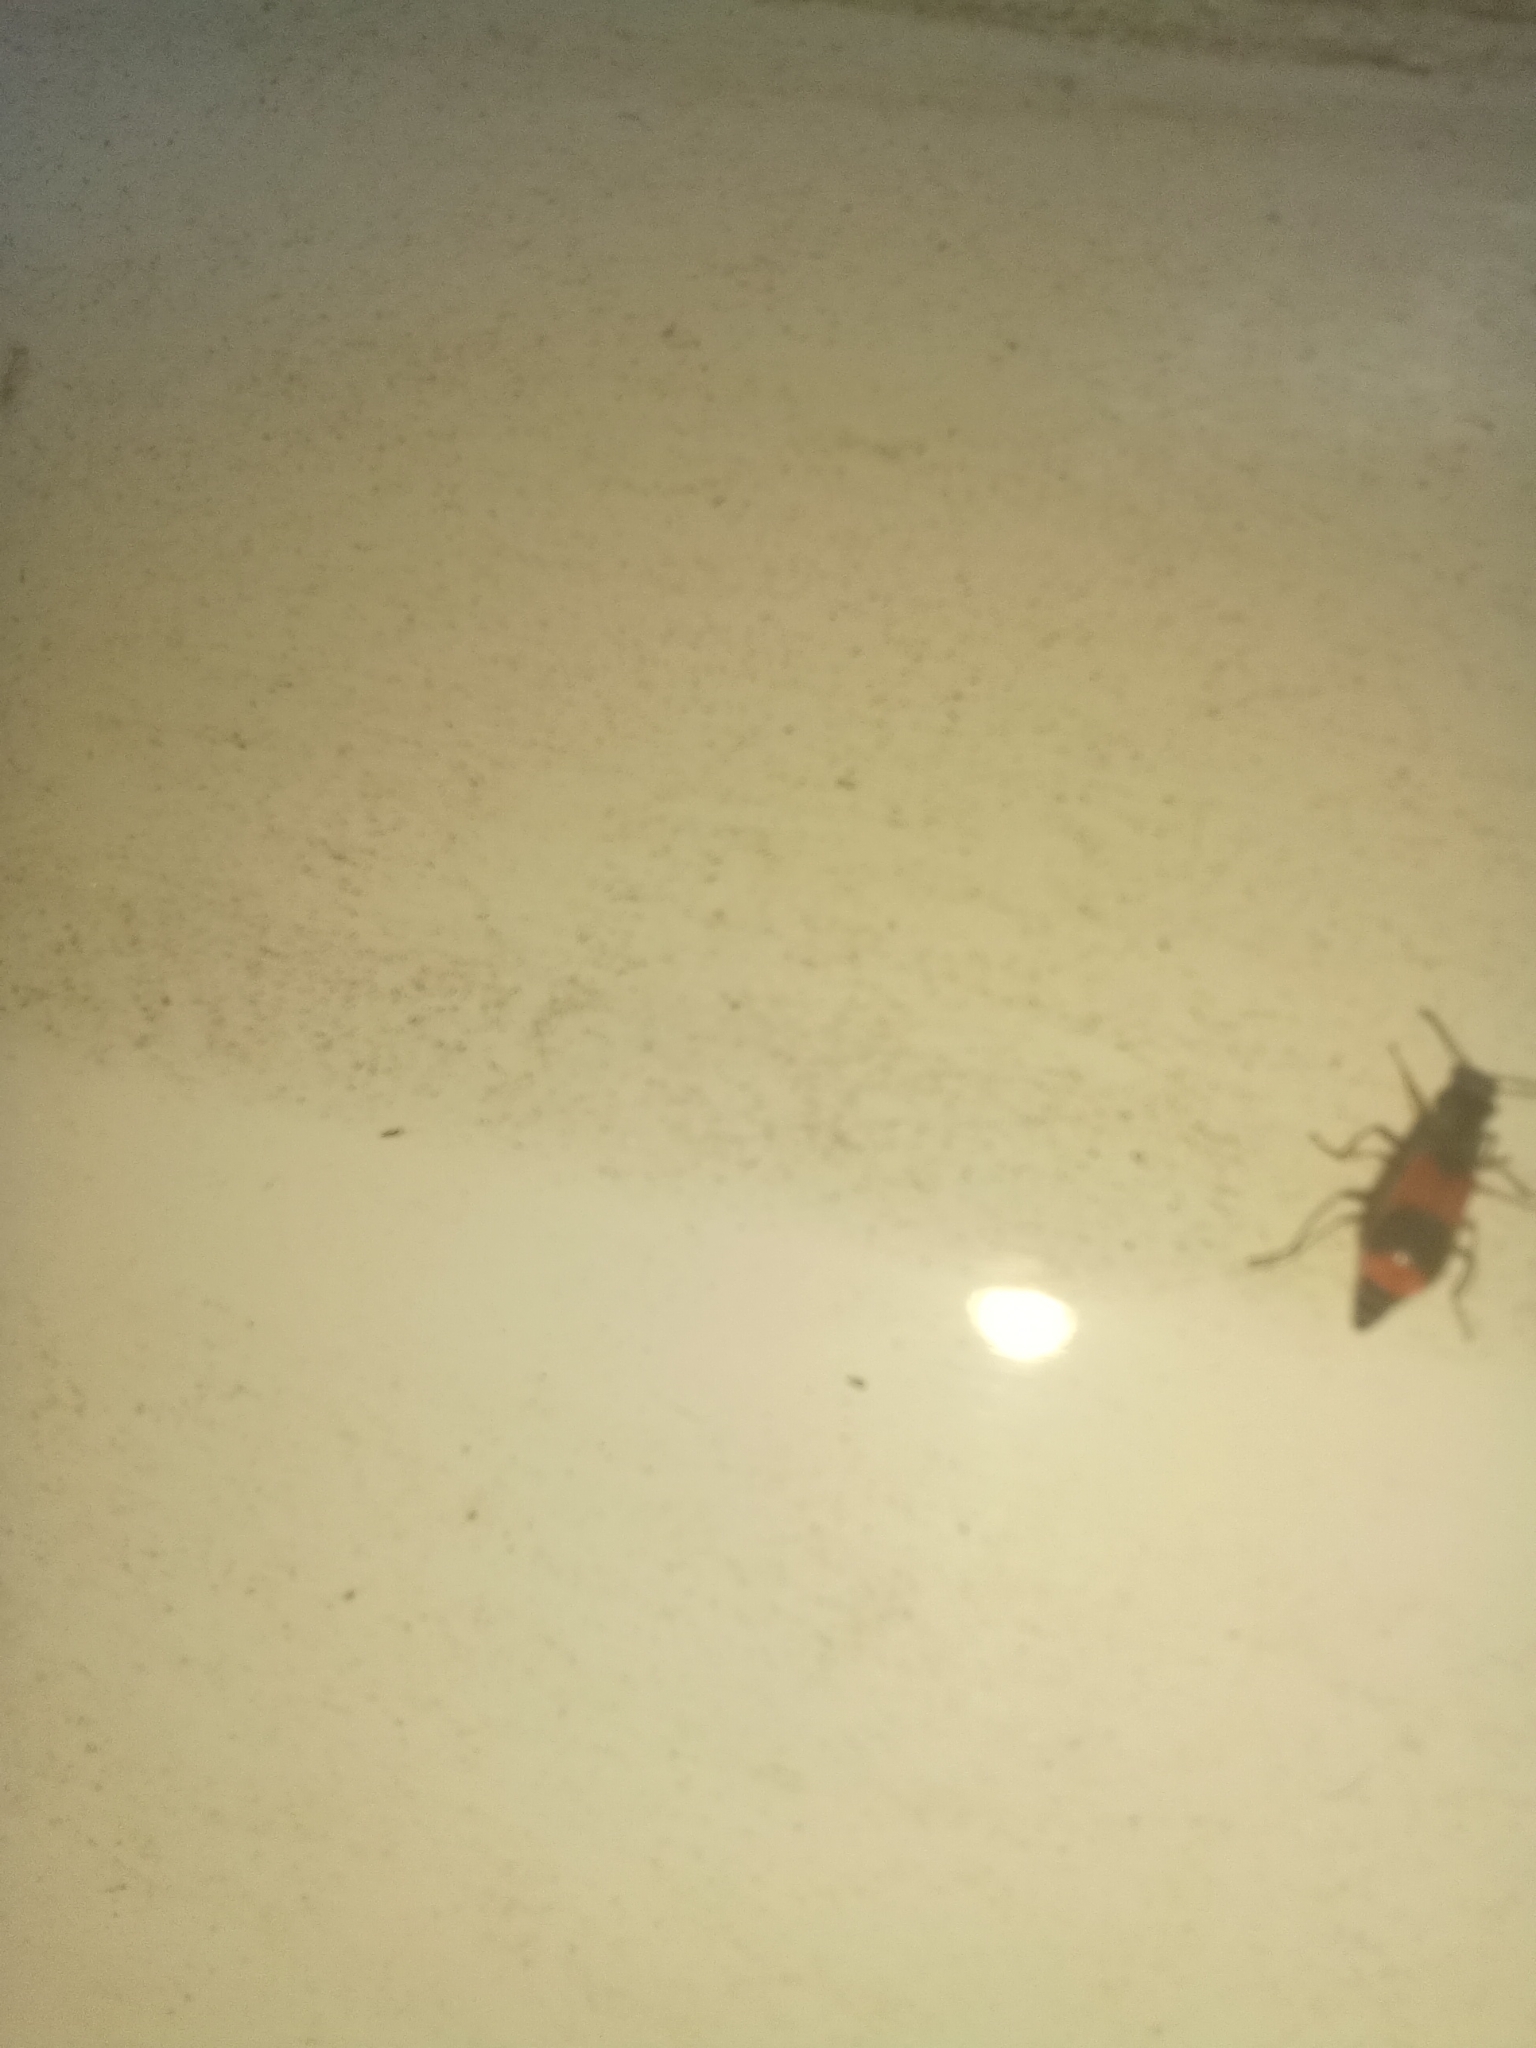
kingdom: Animalia
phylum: Arthropoda
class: Insecta
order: Coleoptera
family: Melyridae
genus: Anthocomus
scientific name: Anthocomus equestris
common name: Black-banded soft-winged flower beetle
